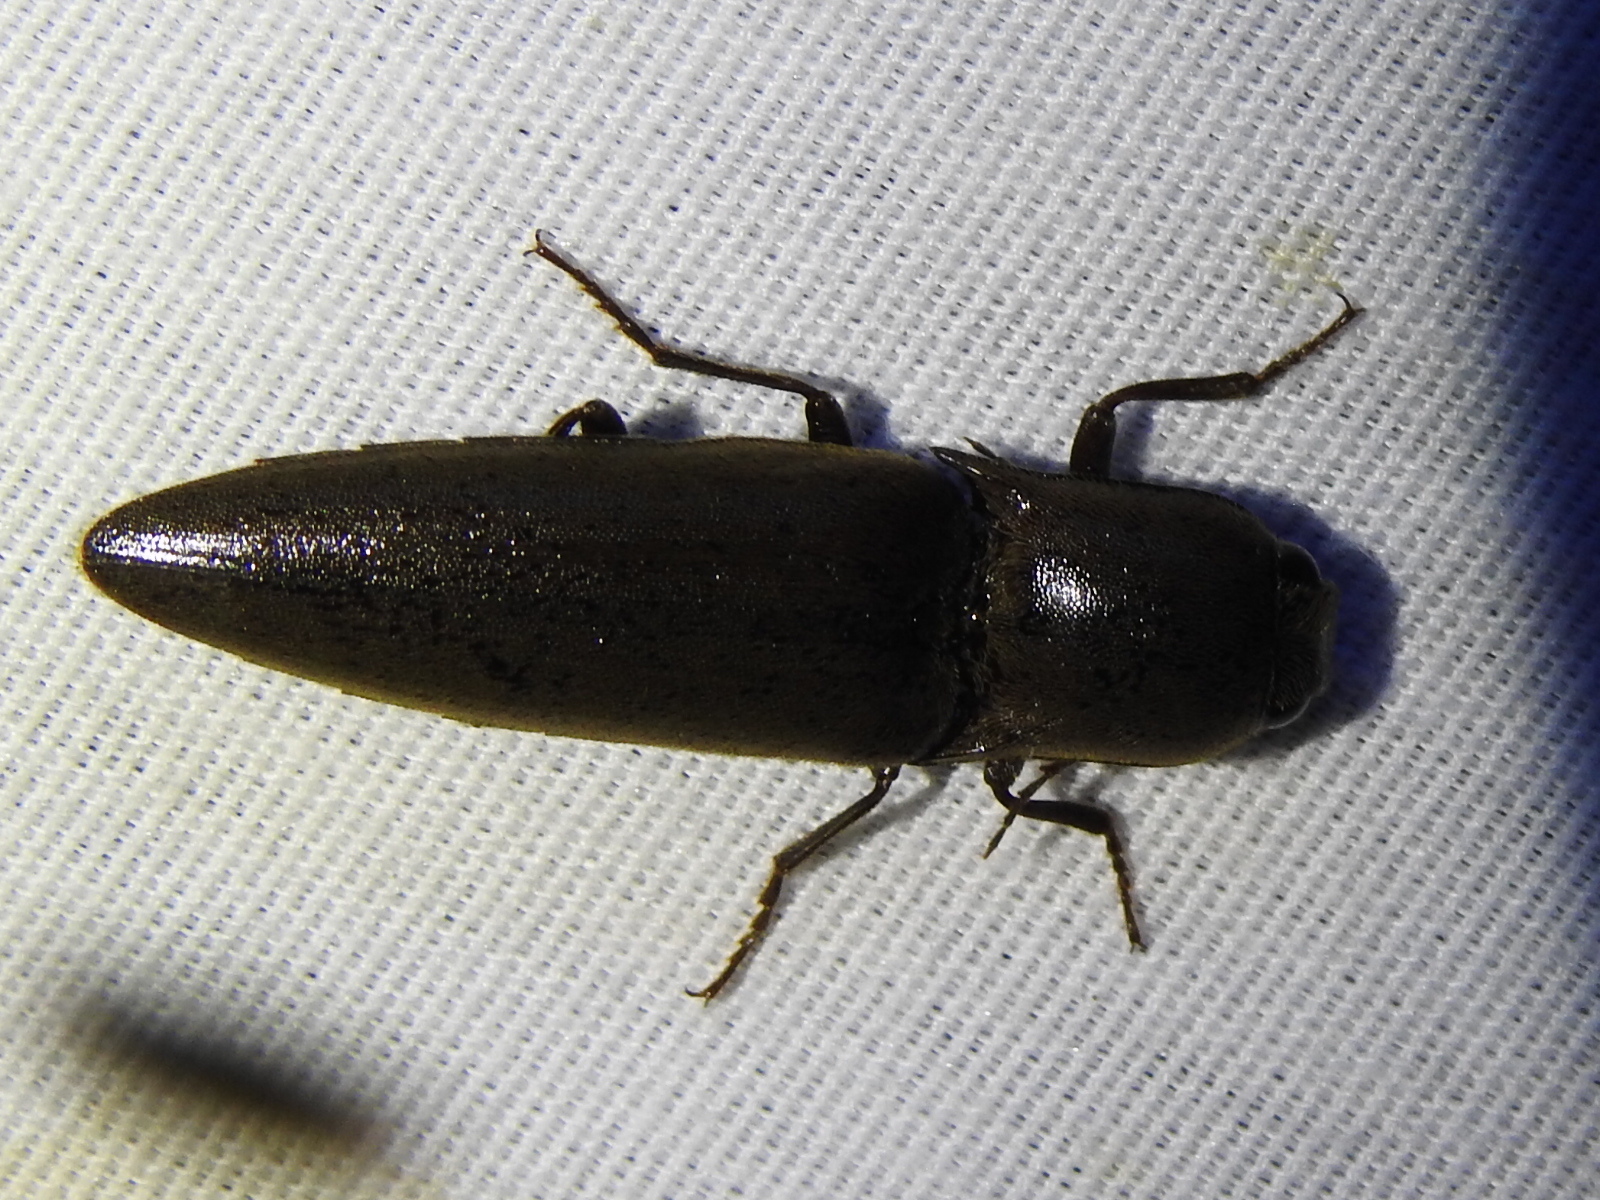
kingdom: Animalia
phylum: Arthropoda
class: Insecta
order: Coleoptera
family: Elateridae
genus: Orthostethus
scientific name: Orthostethus infuscatus
